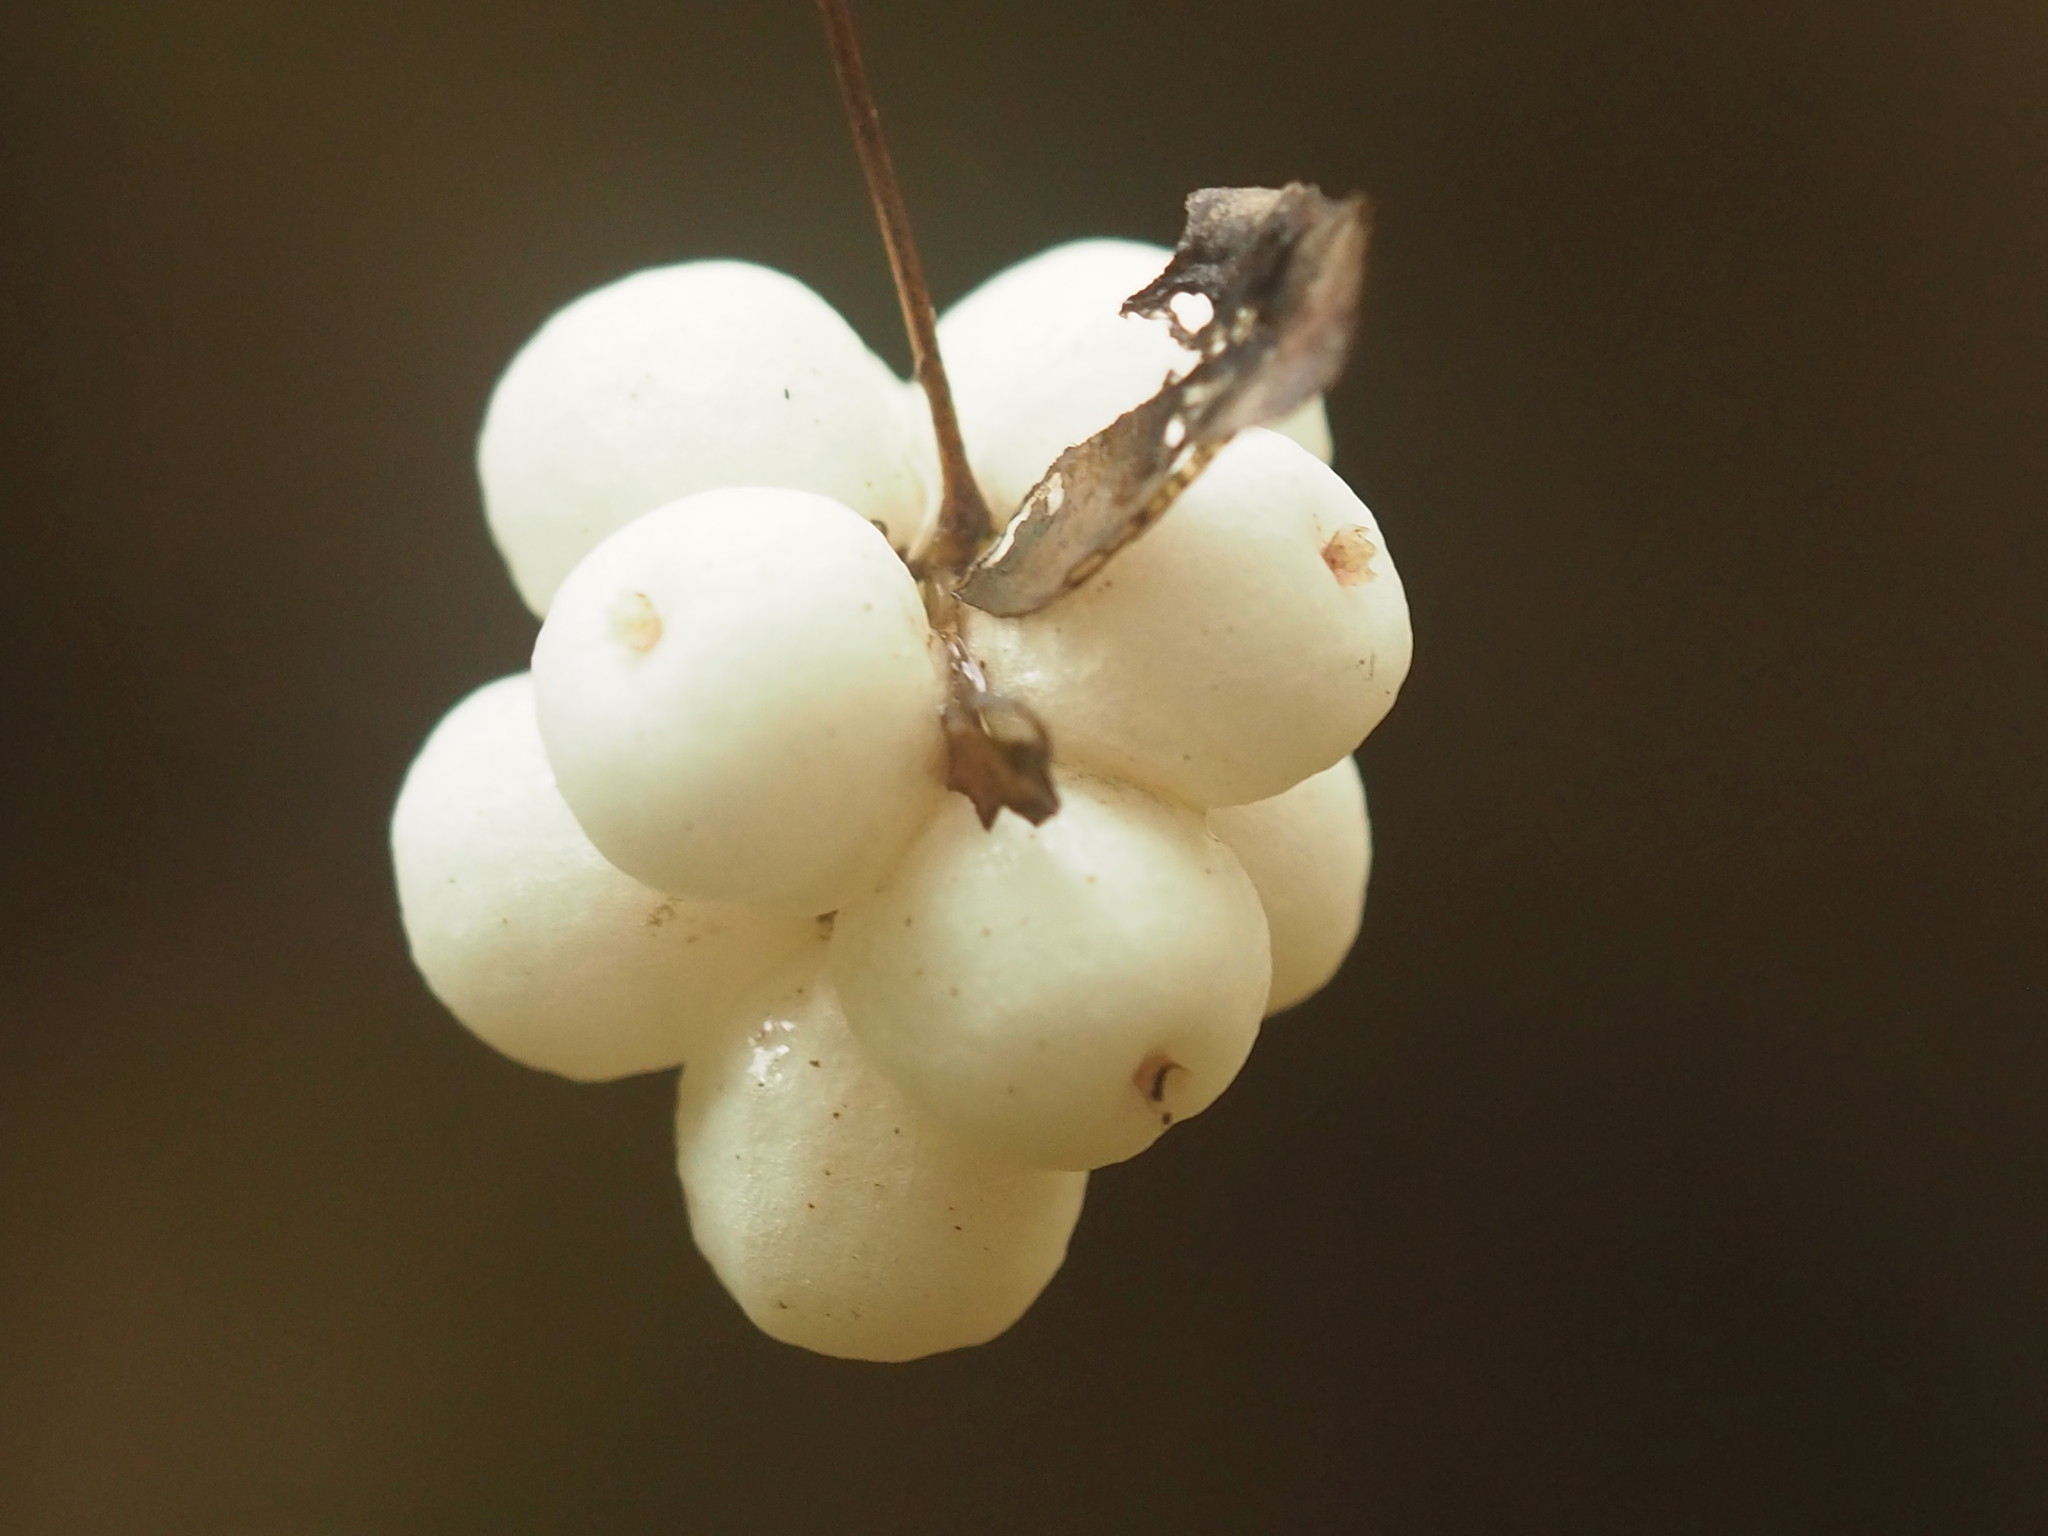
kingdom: Plantae
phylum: Tracheophyta
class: Magnoliopsida
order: Dipsacales
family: Caprifoliaceae
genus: Symphoricarpos
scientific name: Symphoricarpos albus
